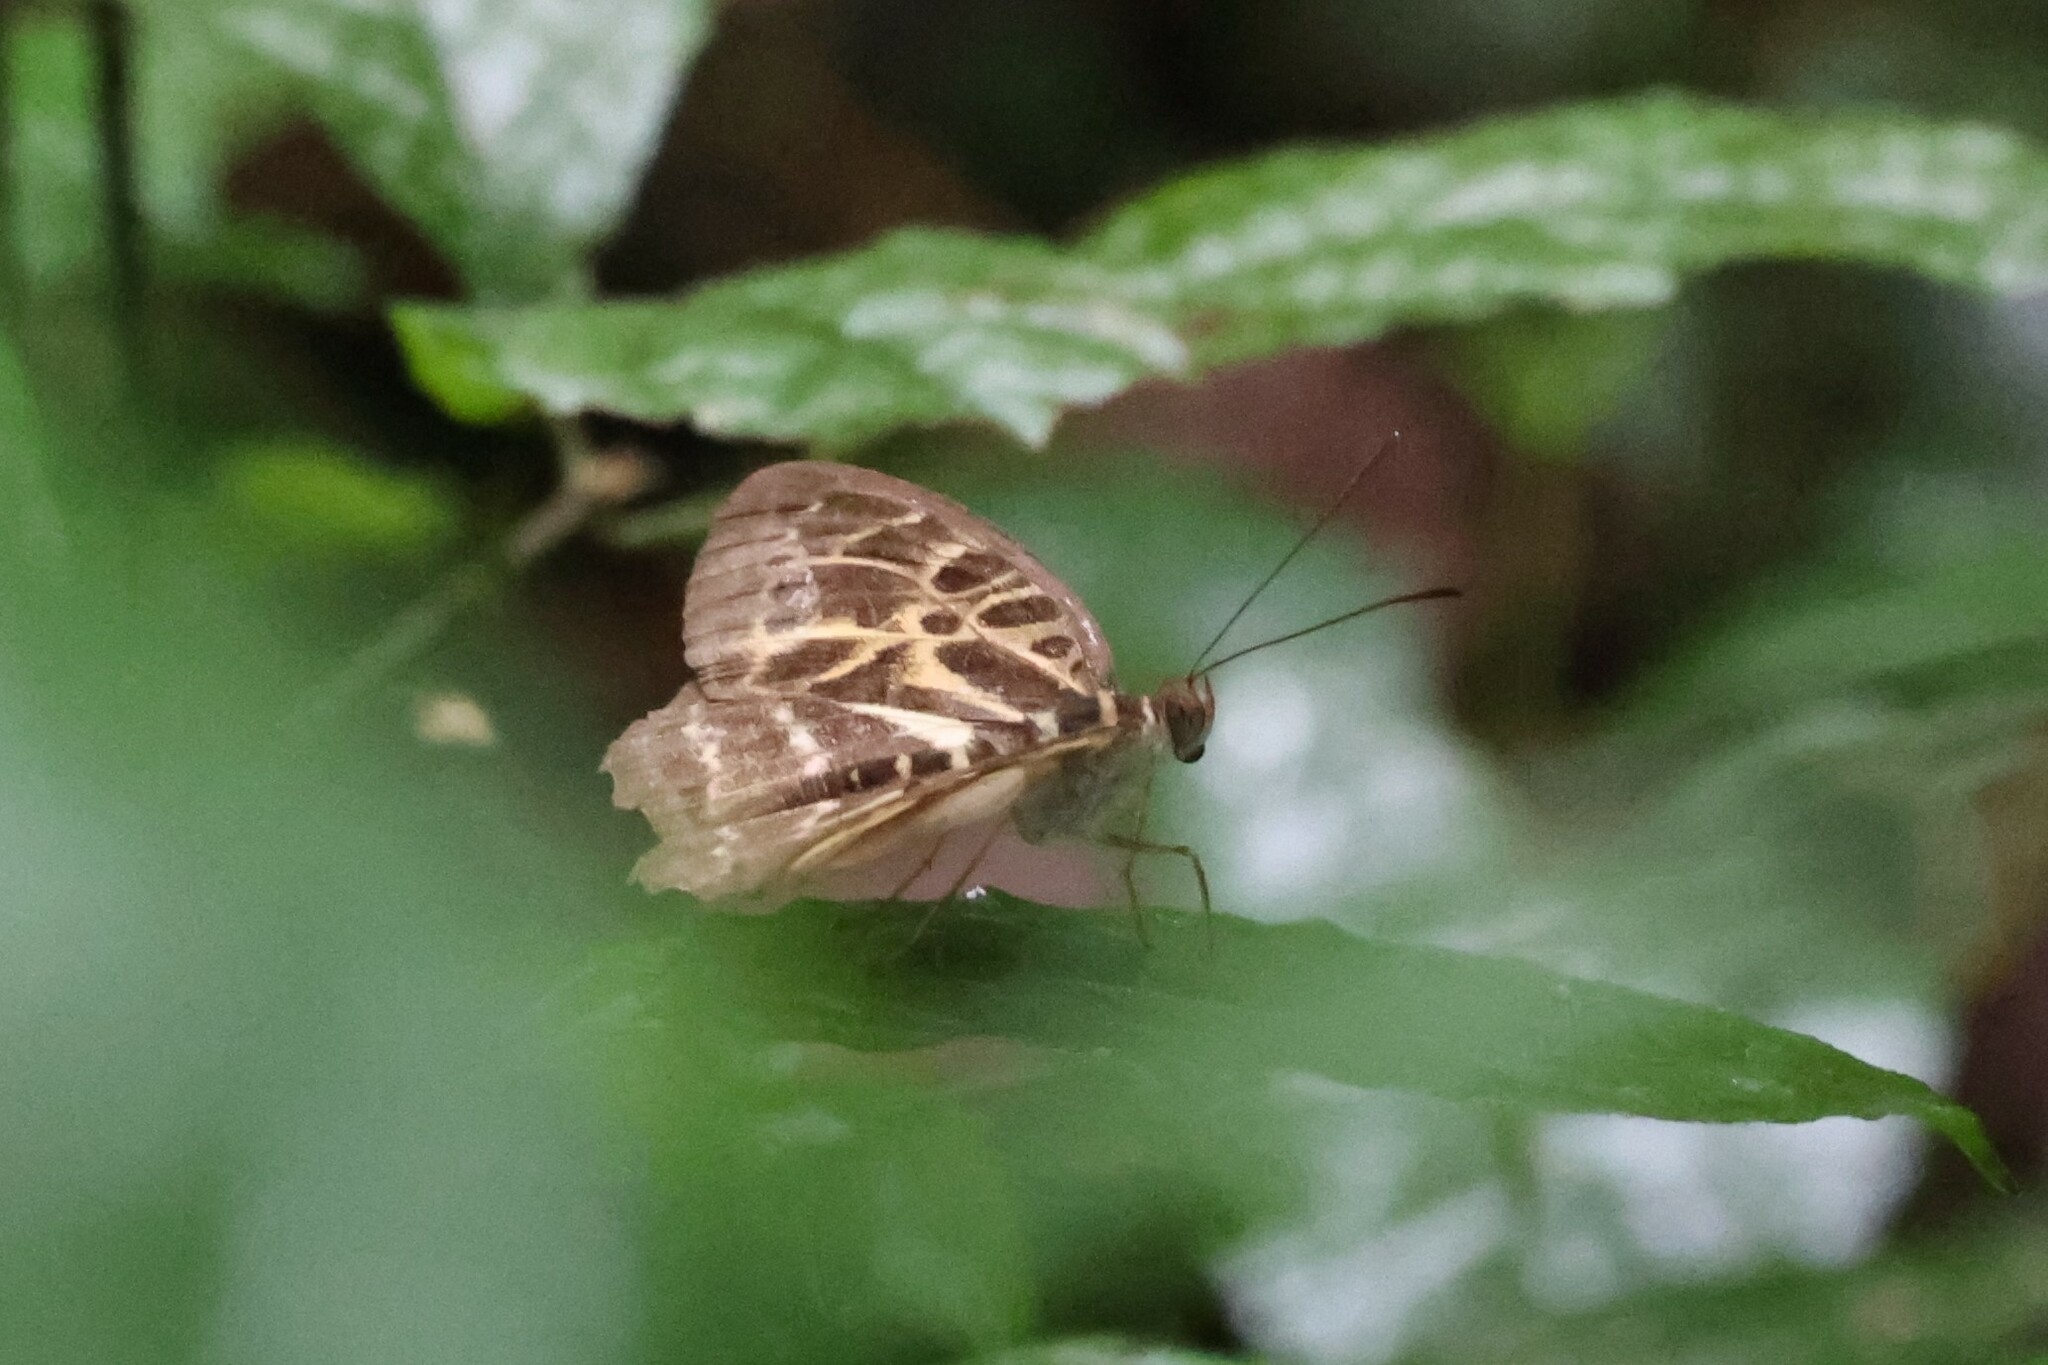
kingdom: Animalia
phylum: Arthropoda
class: Insecta
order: Lepidoptera
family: Nymphalidae
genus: Catuna
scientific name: Catuna
